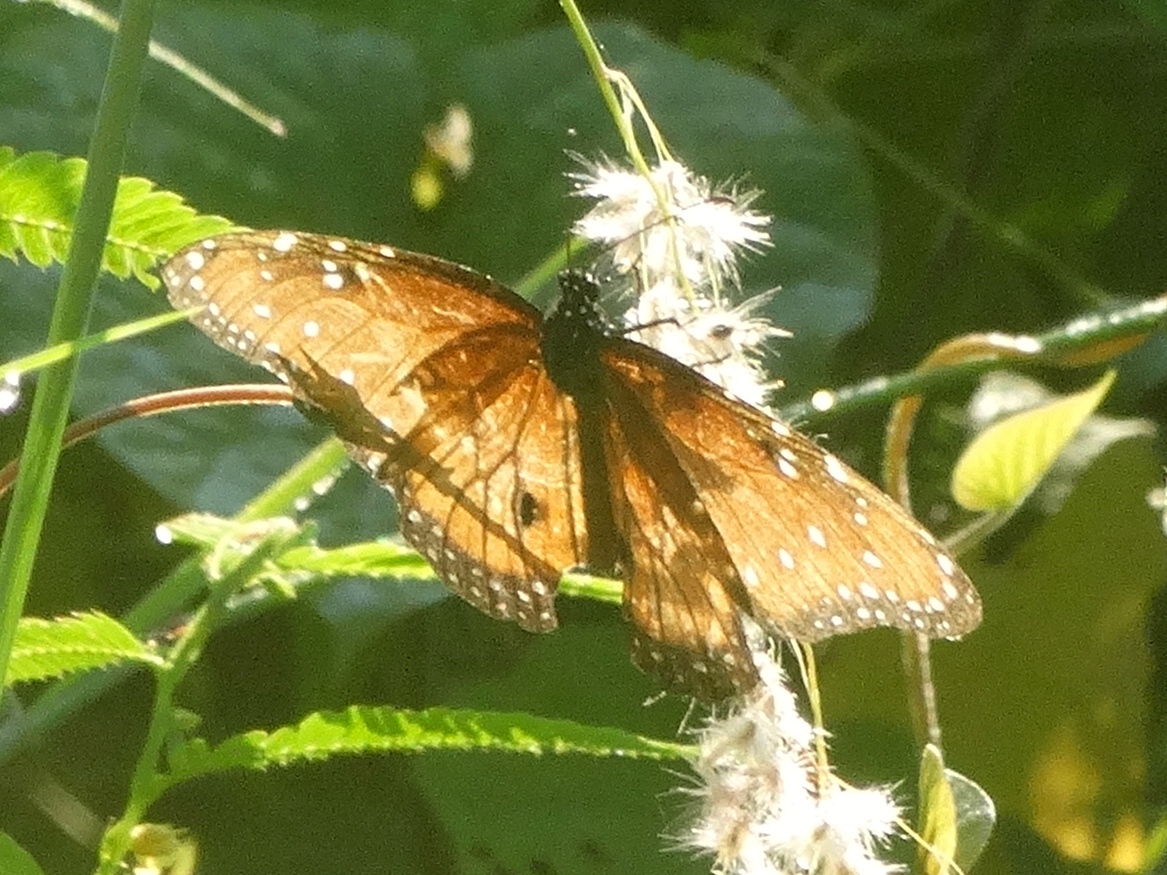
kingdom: Animalia
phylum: Arthropoda
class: Insecta
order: Lepidoptera
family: Nymphalidae
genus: Danaus
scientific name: Danaus gilippus
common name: Queen
